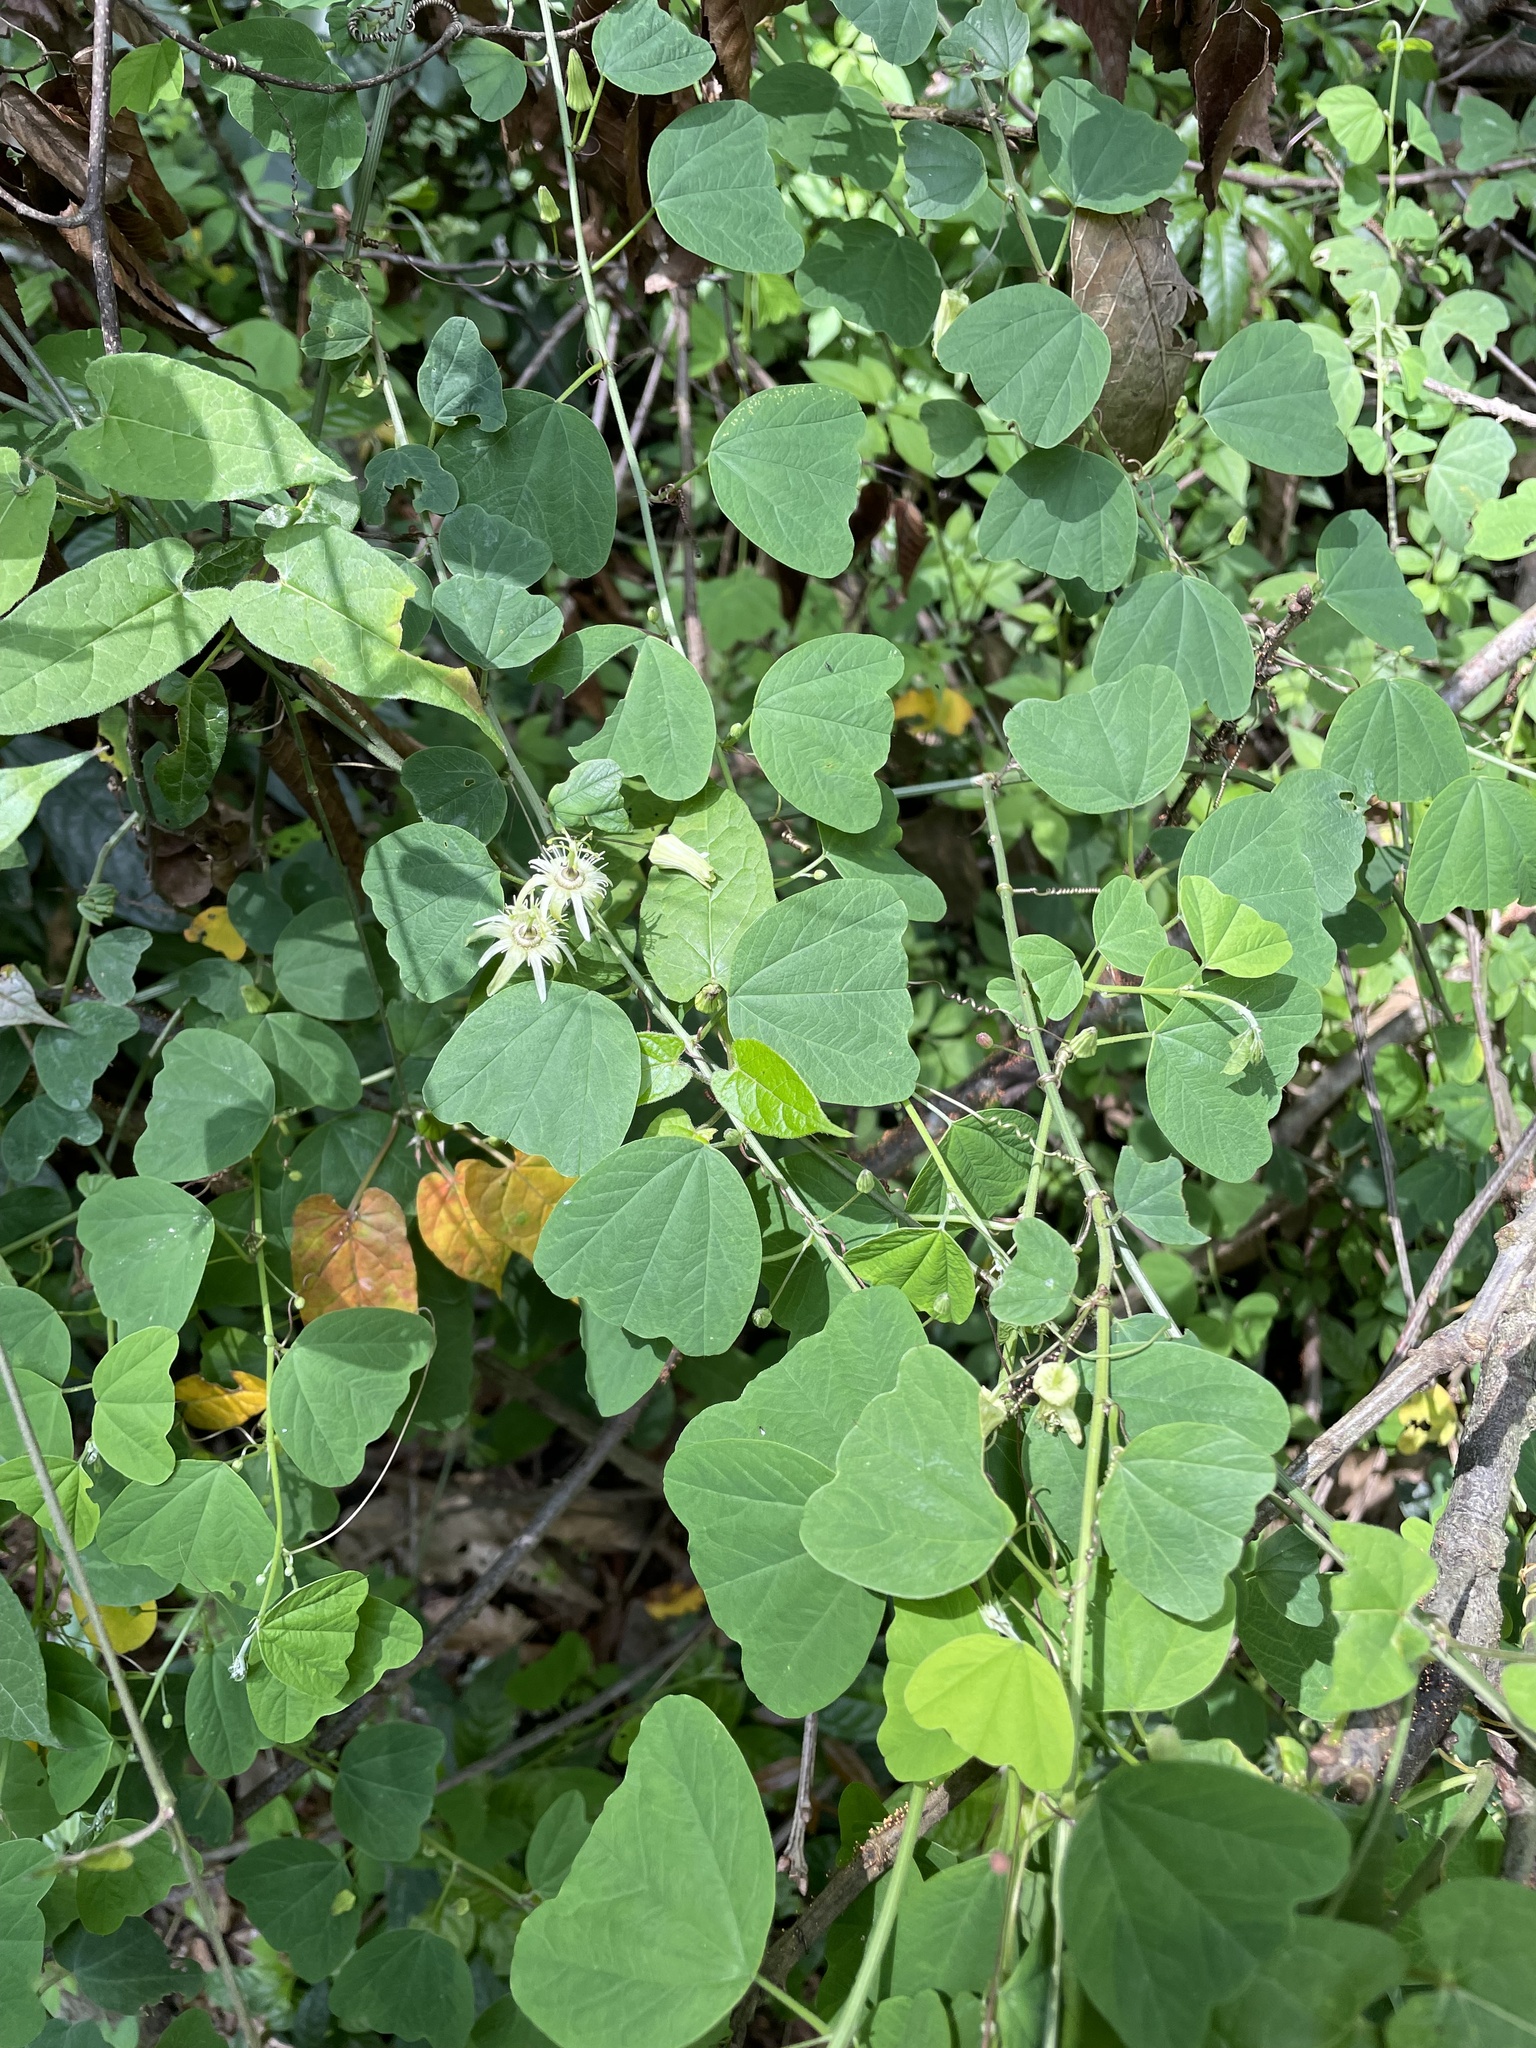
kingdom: Plantae
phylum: Tracheophyta
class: Magnoliopsida
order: Malpighiales
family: Passifloraceae
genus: Passiflora
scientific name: Passiflora pavonis
